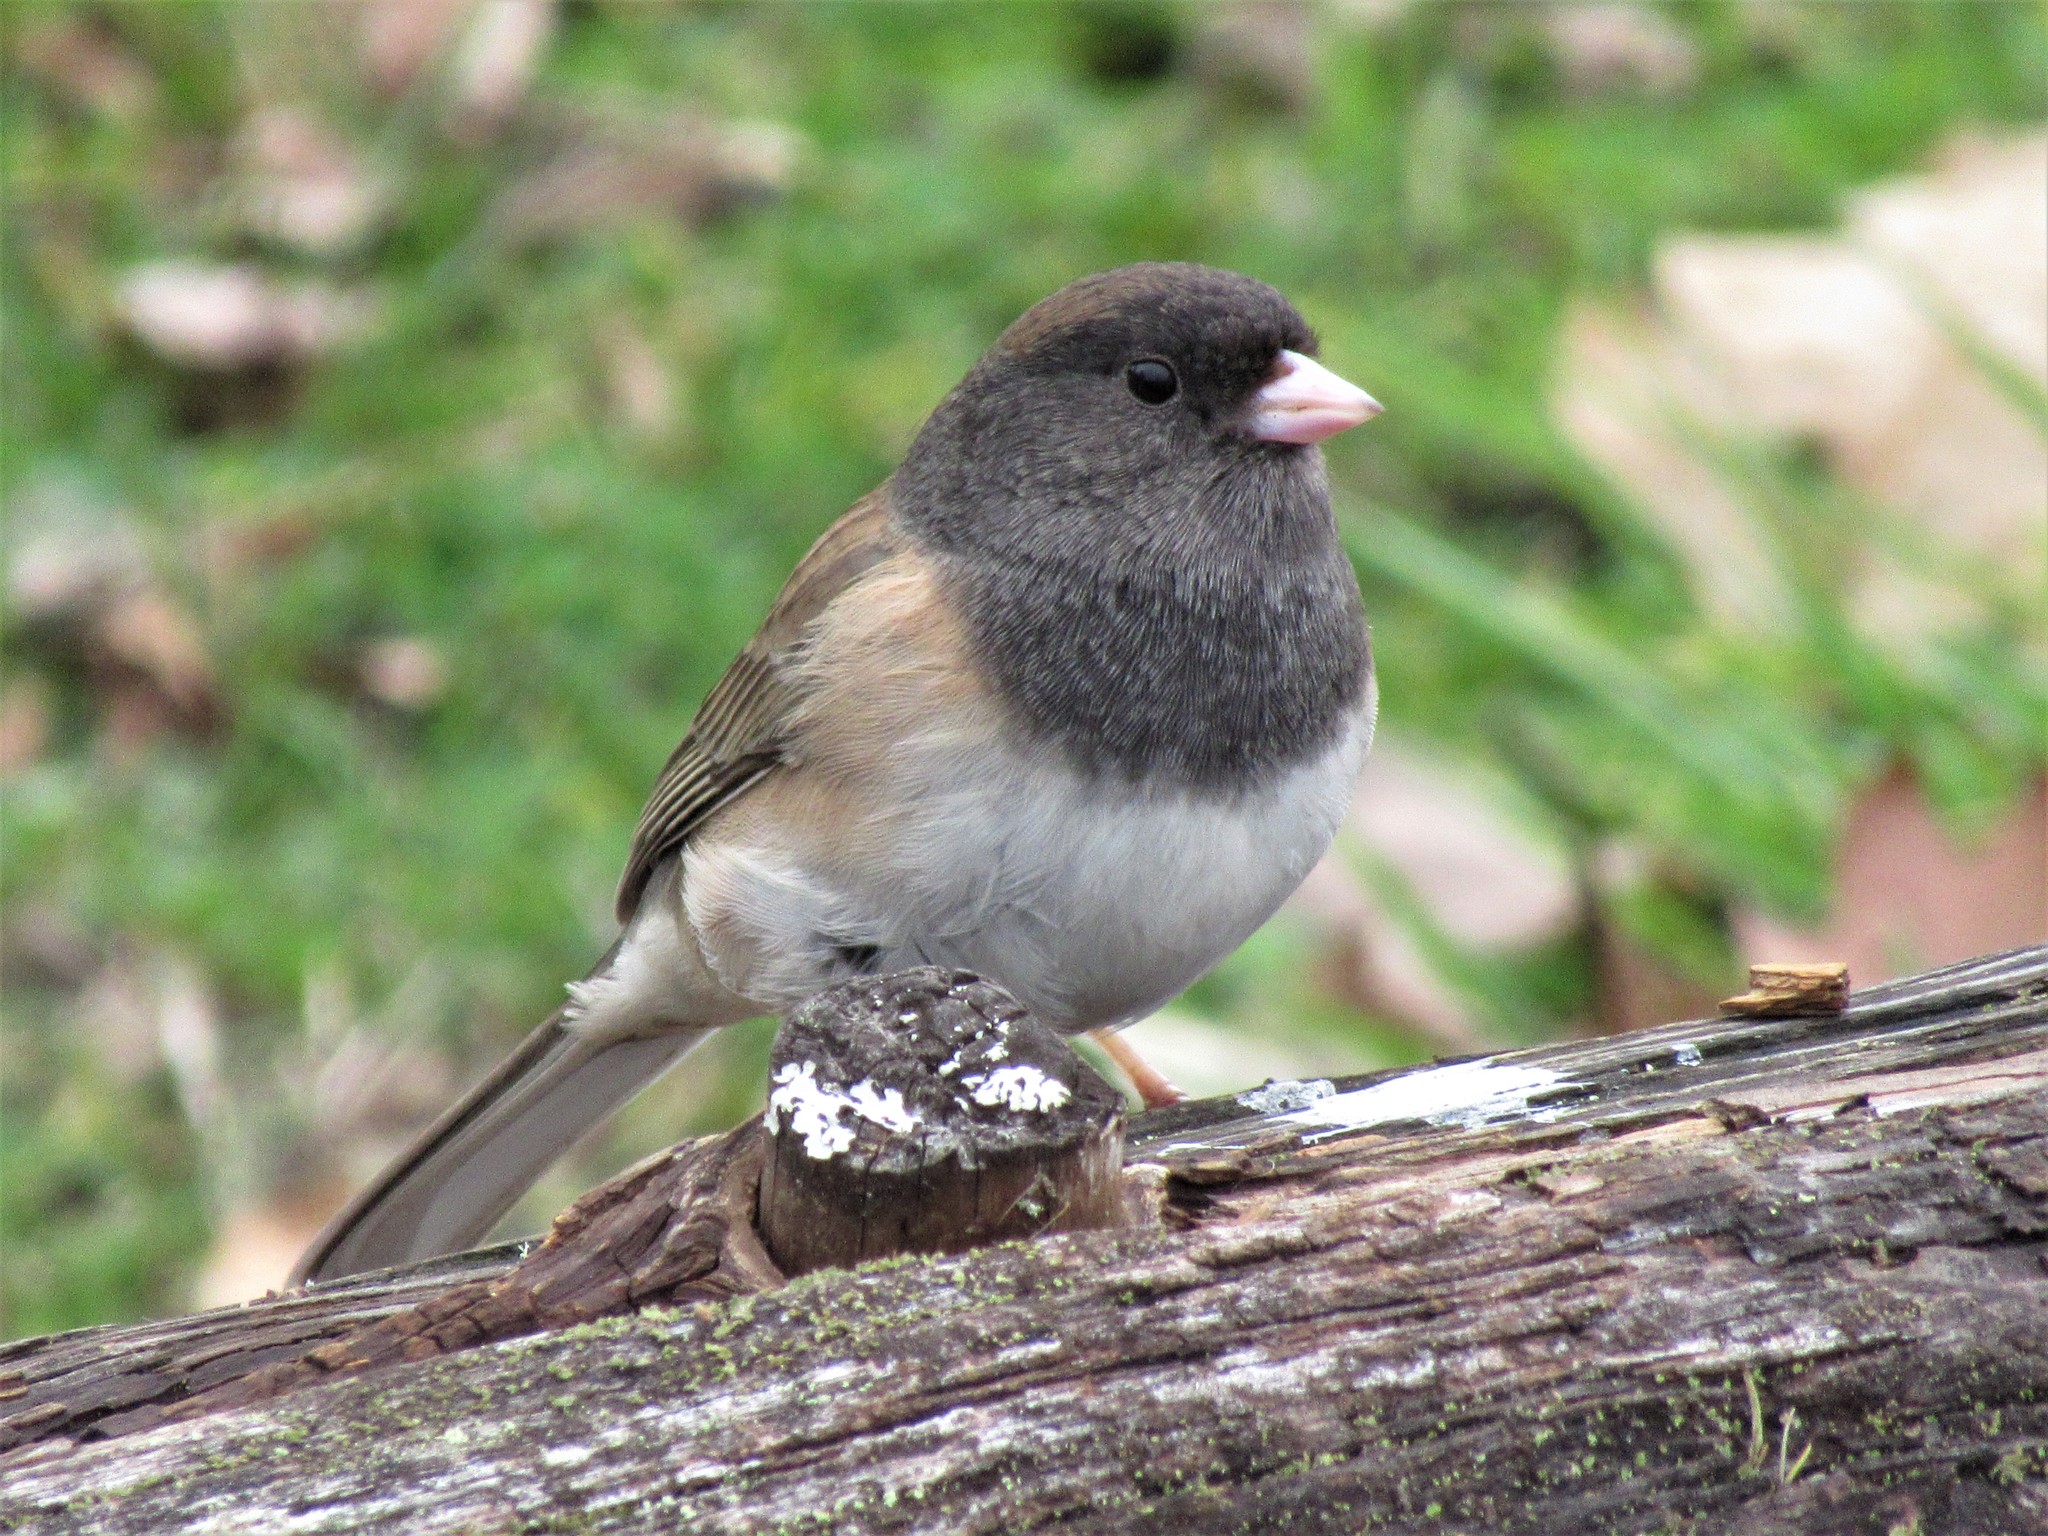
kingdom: Animalia
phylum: Chordata
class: Aves
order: Passeriformes
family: Passerellidae
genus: Junco
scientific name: Junco hyemalis
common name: Dark-eyed junco
